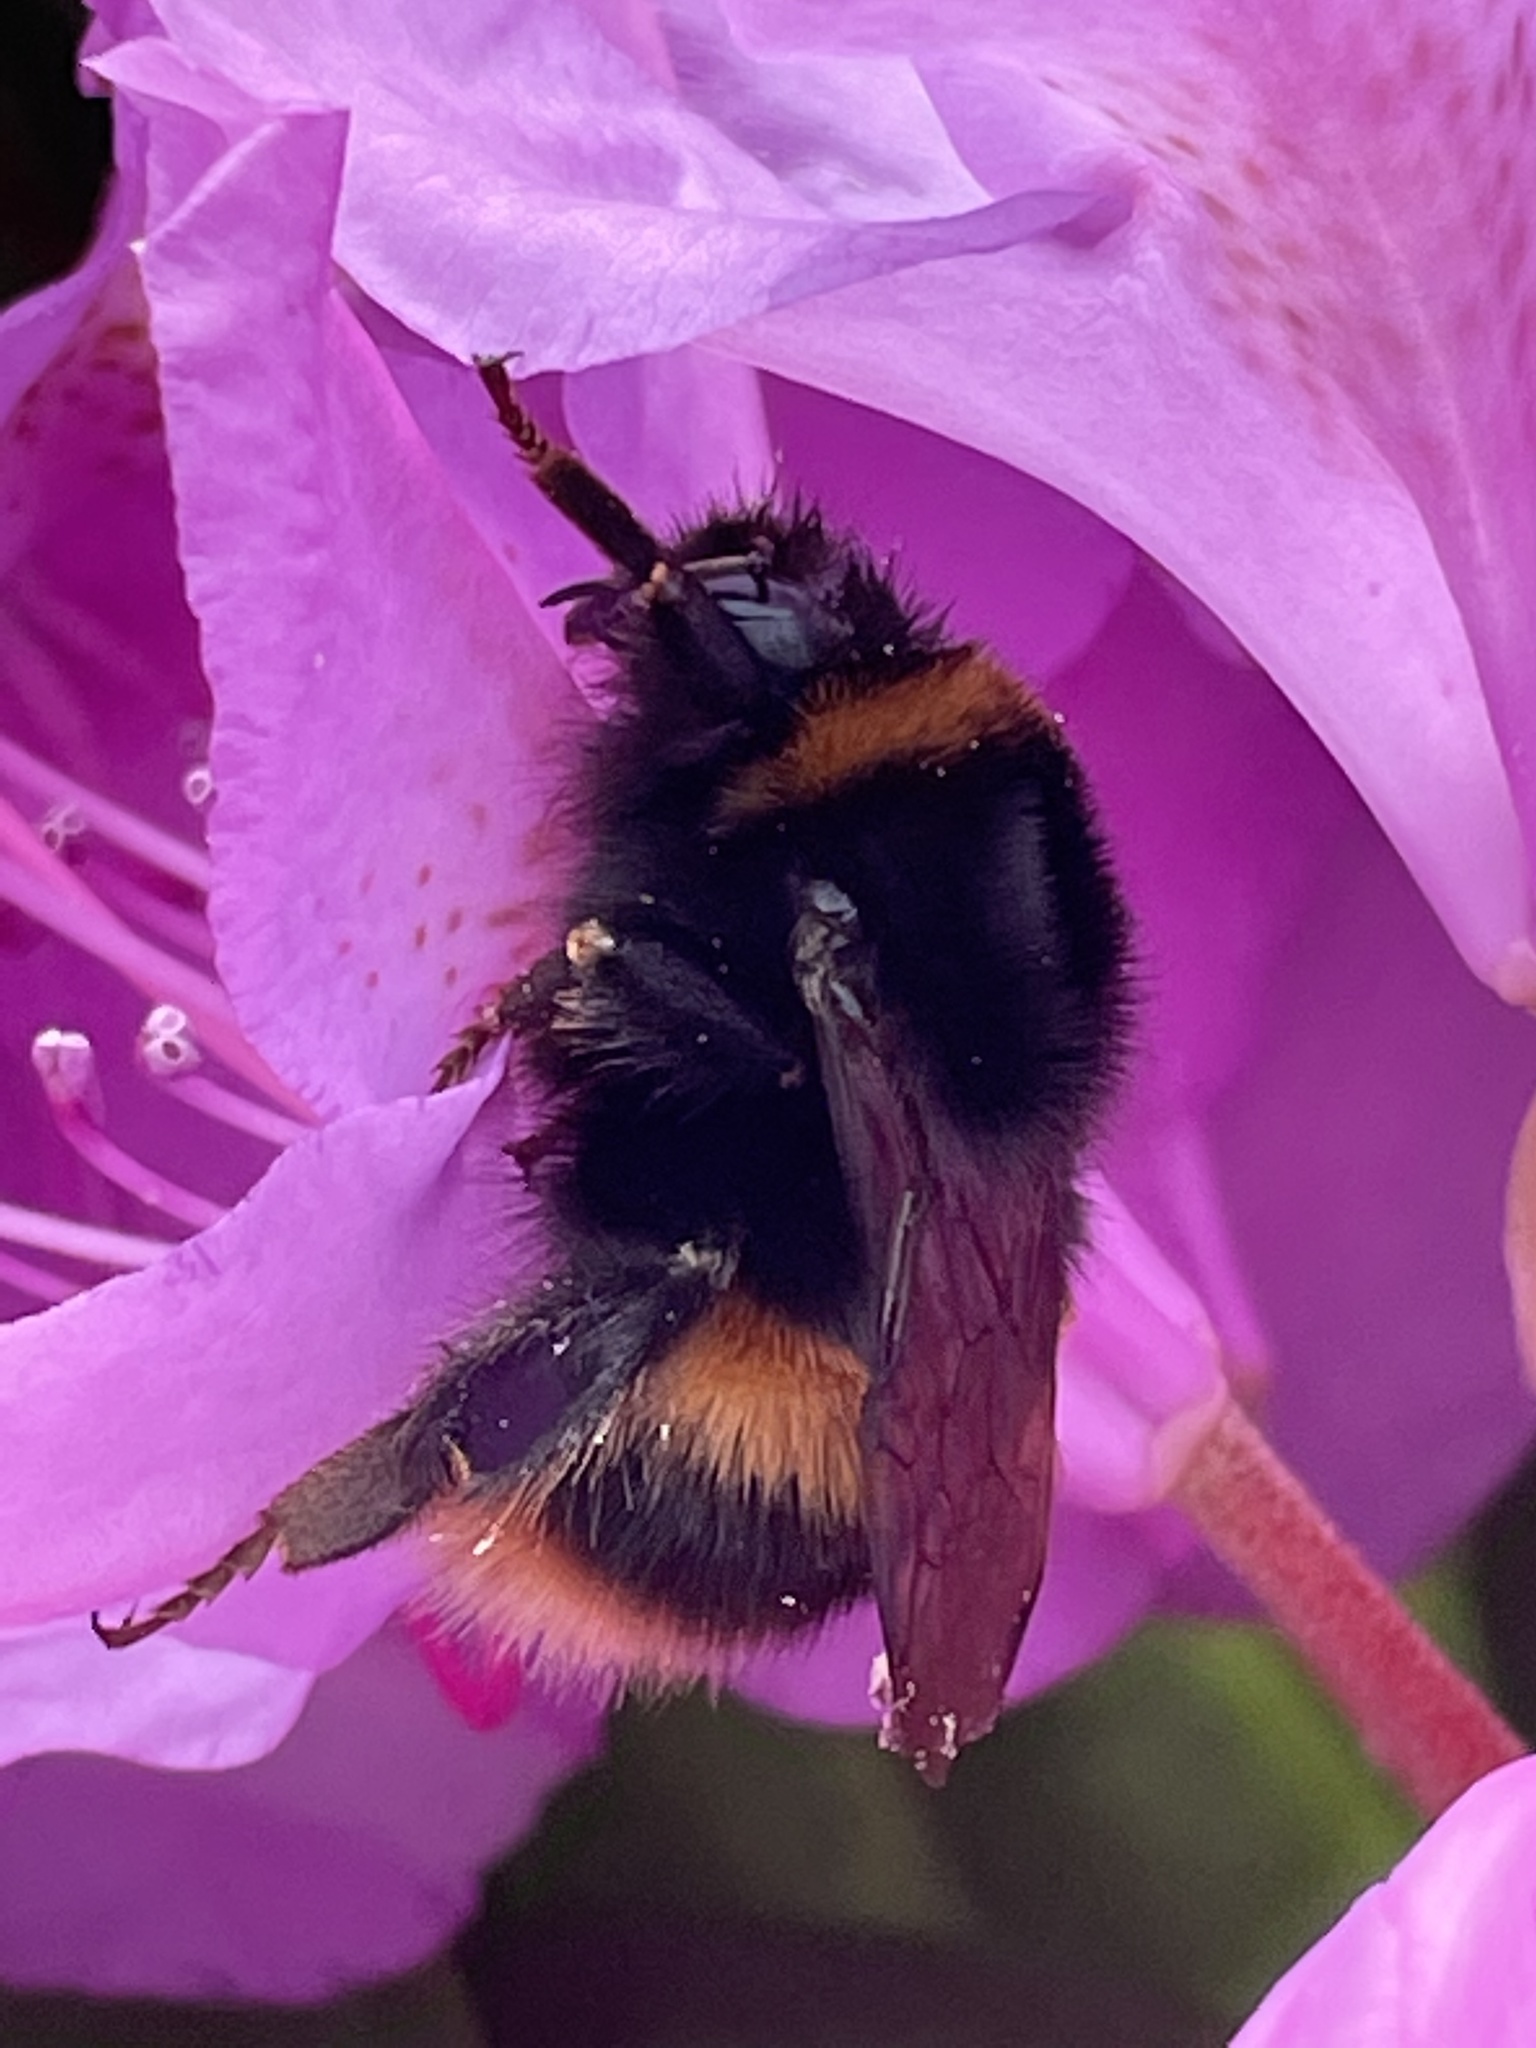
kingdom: Animalia
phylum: Arthropoda
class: Insecta
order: Hymenoptera
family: Apidae
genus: Bombus
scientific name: Bombus terrestris
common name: Buff-tailed bumblebee
